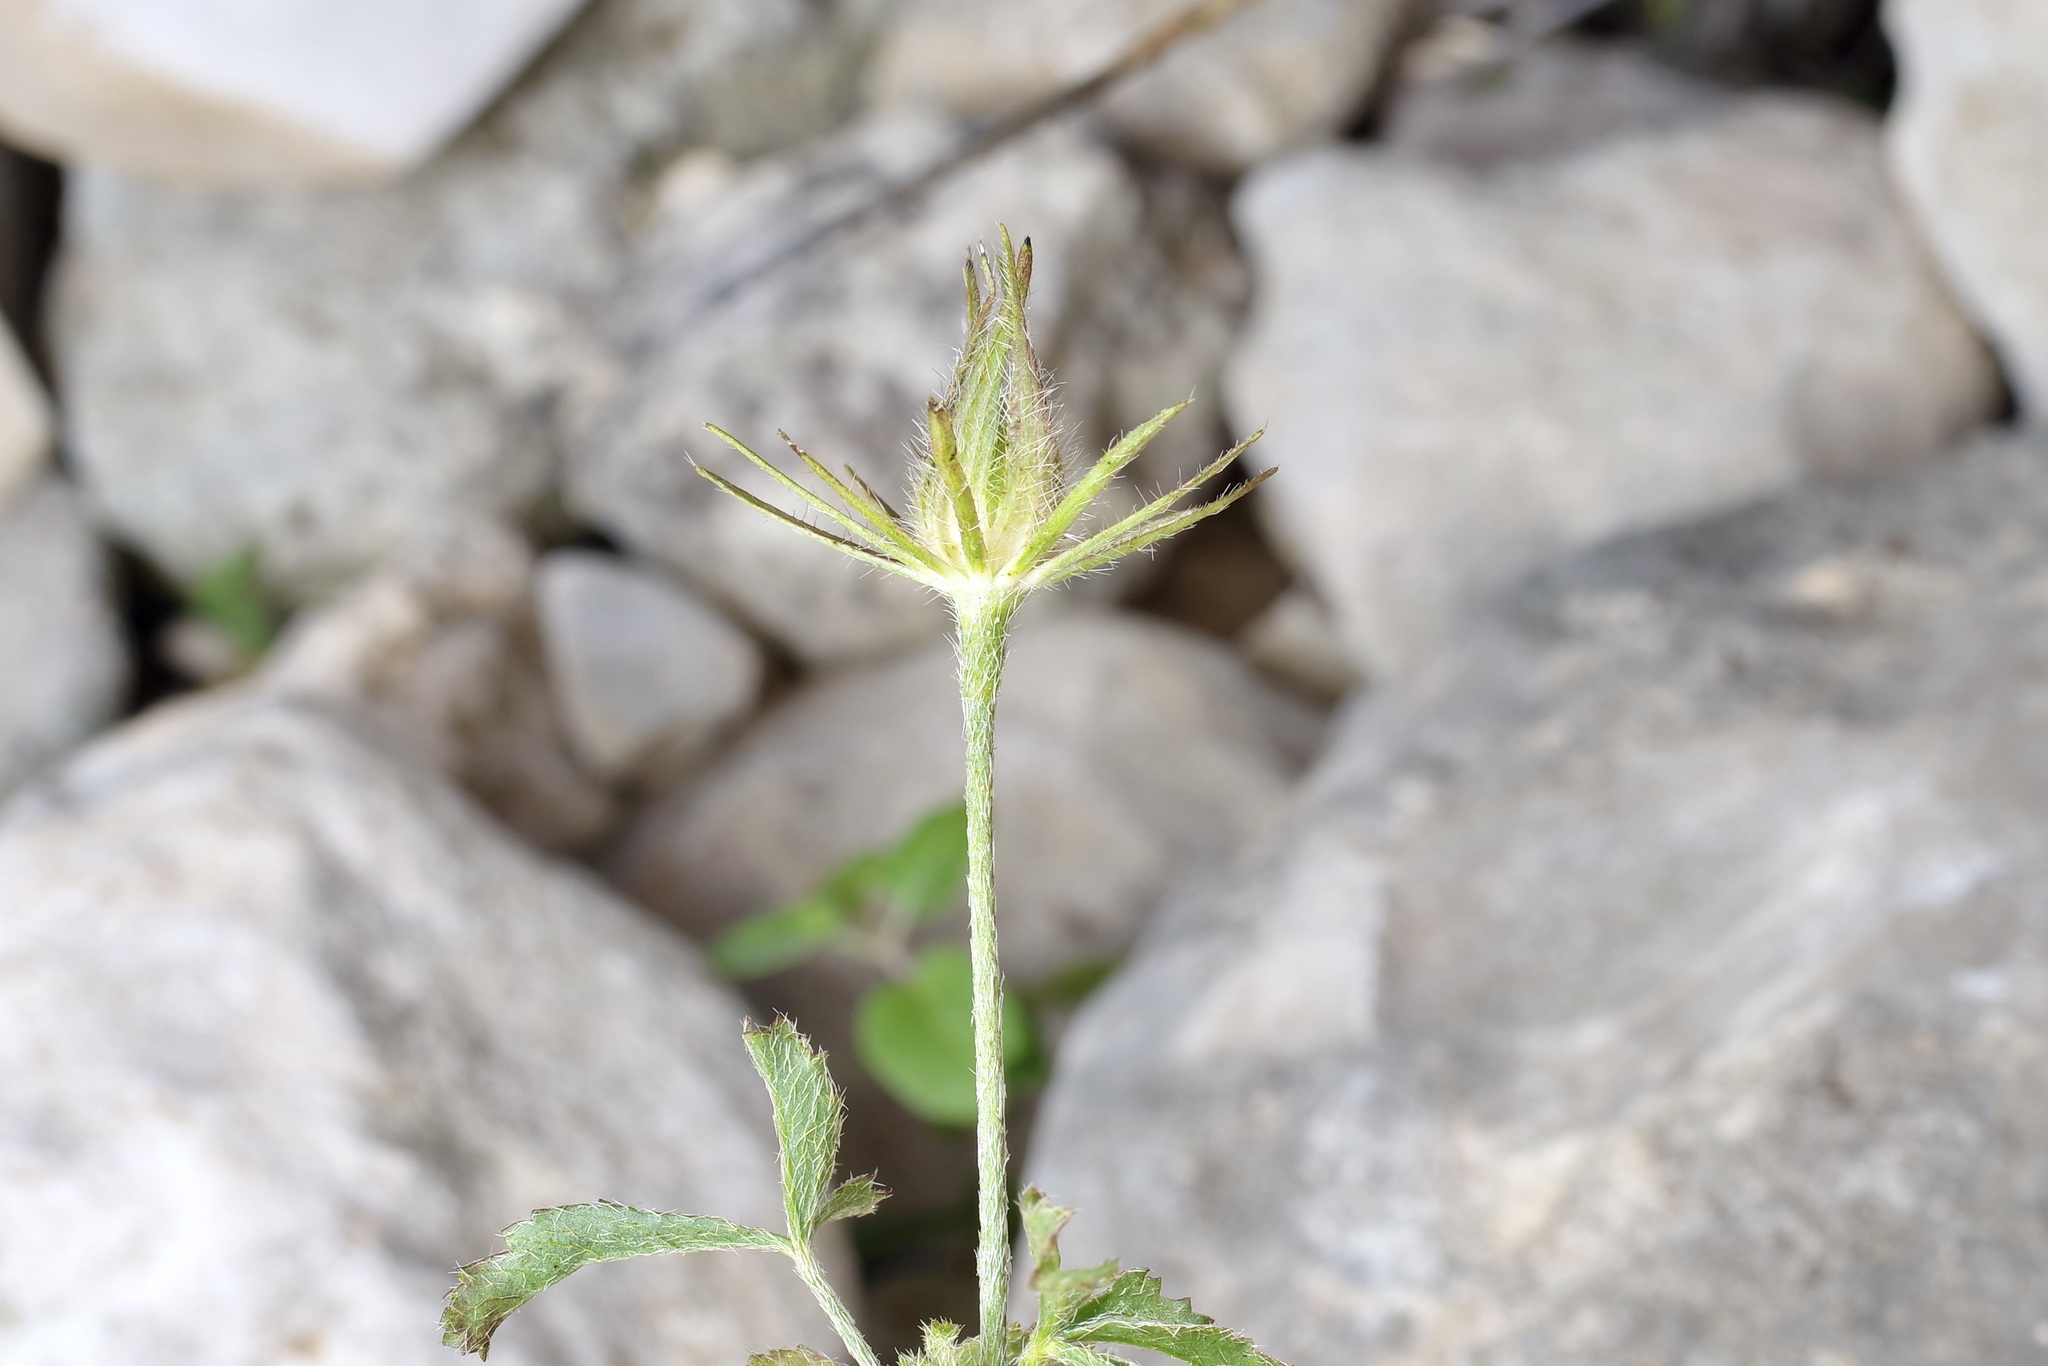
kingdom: Plantae
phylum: Tracheophyta
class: Magnoliopsida
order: Malvales
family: Malvaceae
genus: Hibiscus
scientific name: Hibiscus coulteri
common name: Desert rose-mallow
